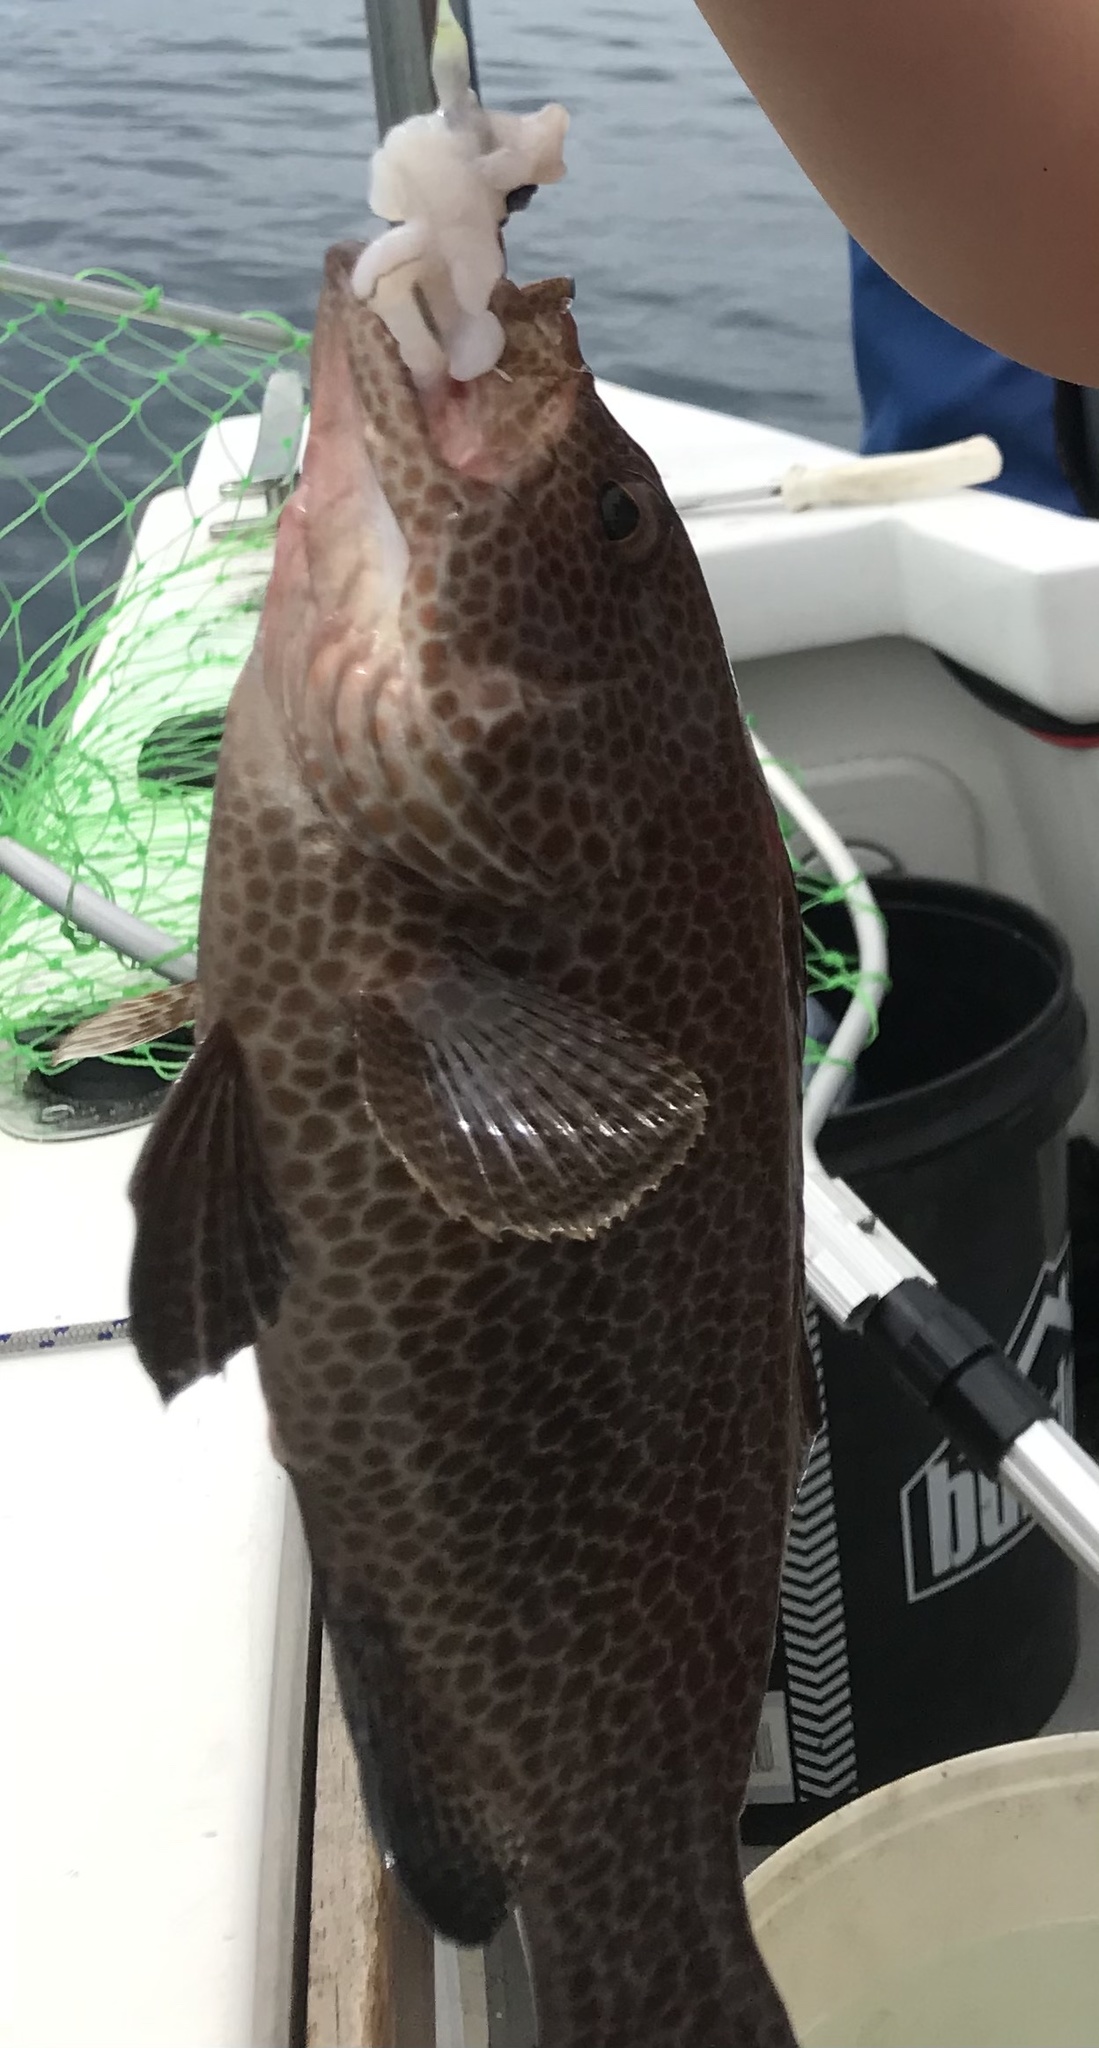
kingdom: Animalia
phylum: Chordata
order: Perciformes
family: Serranidae
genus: Epinephelus
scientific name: Epinephelus chlorostigma
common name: Brownspotted grouper
